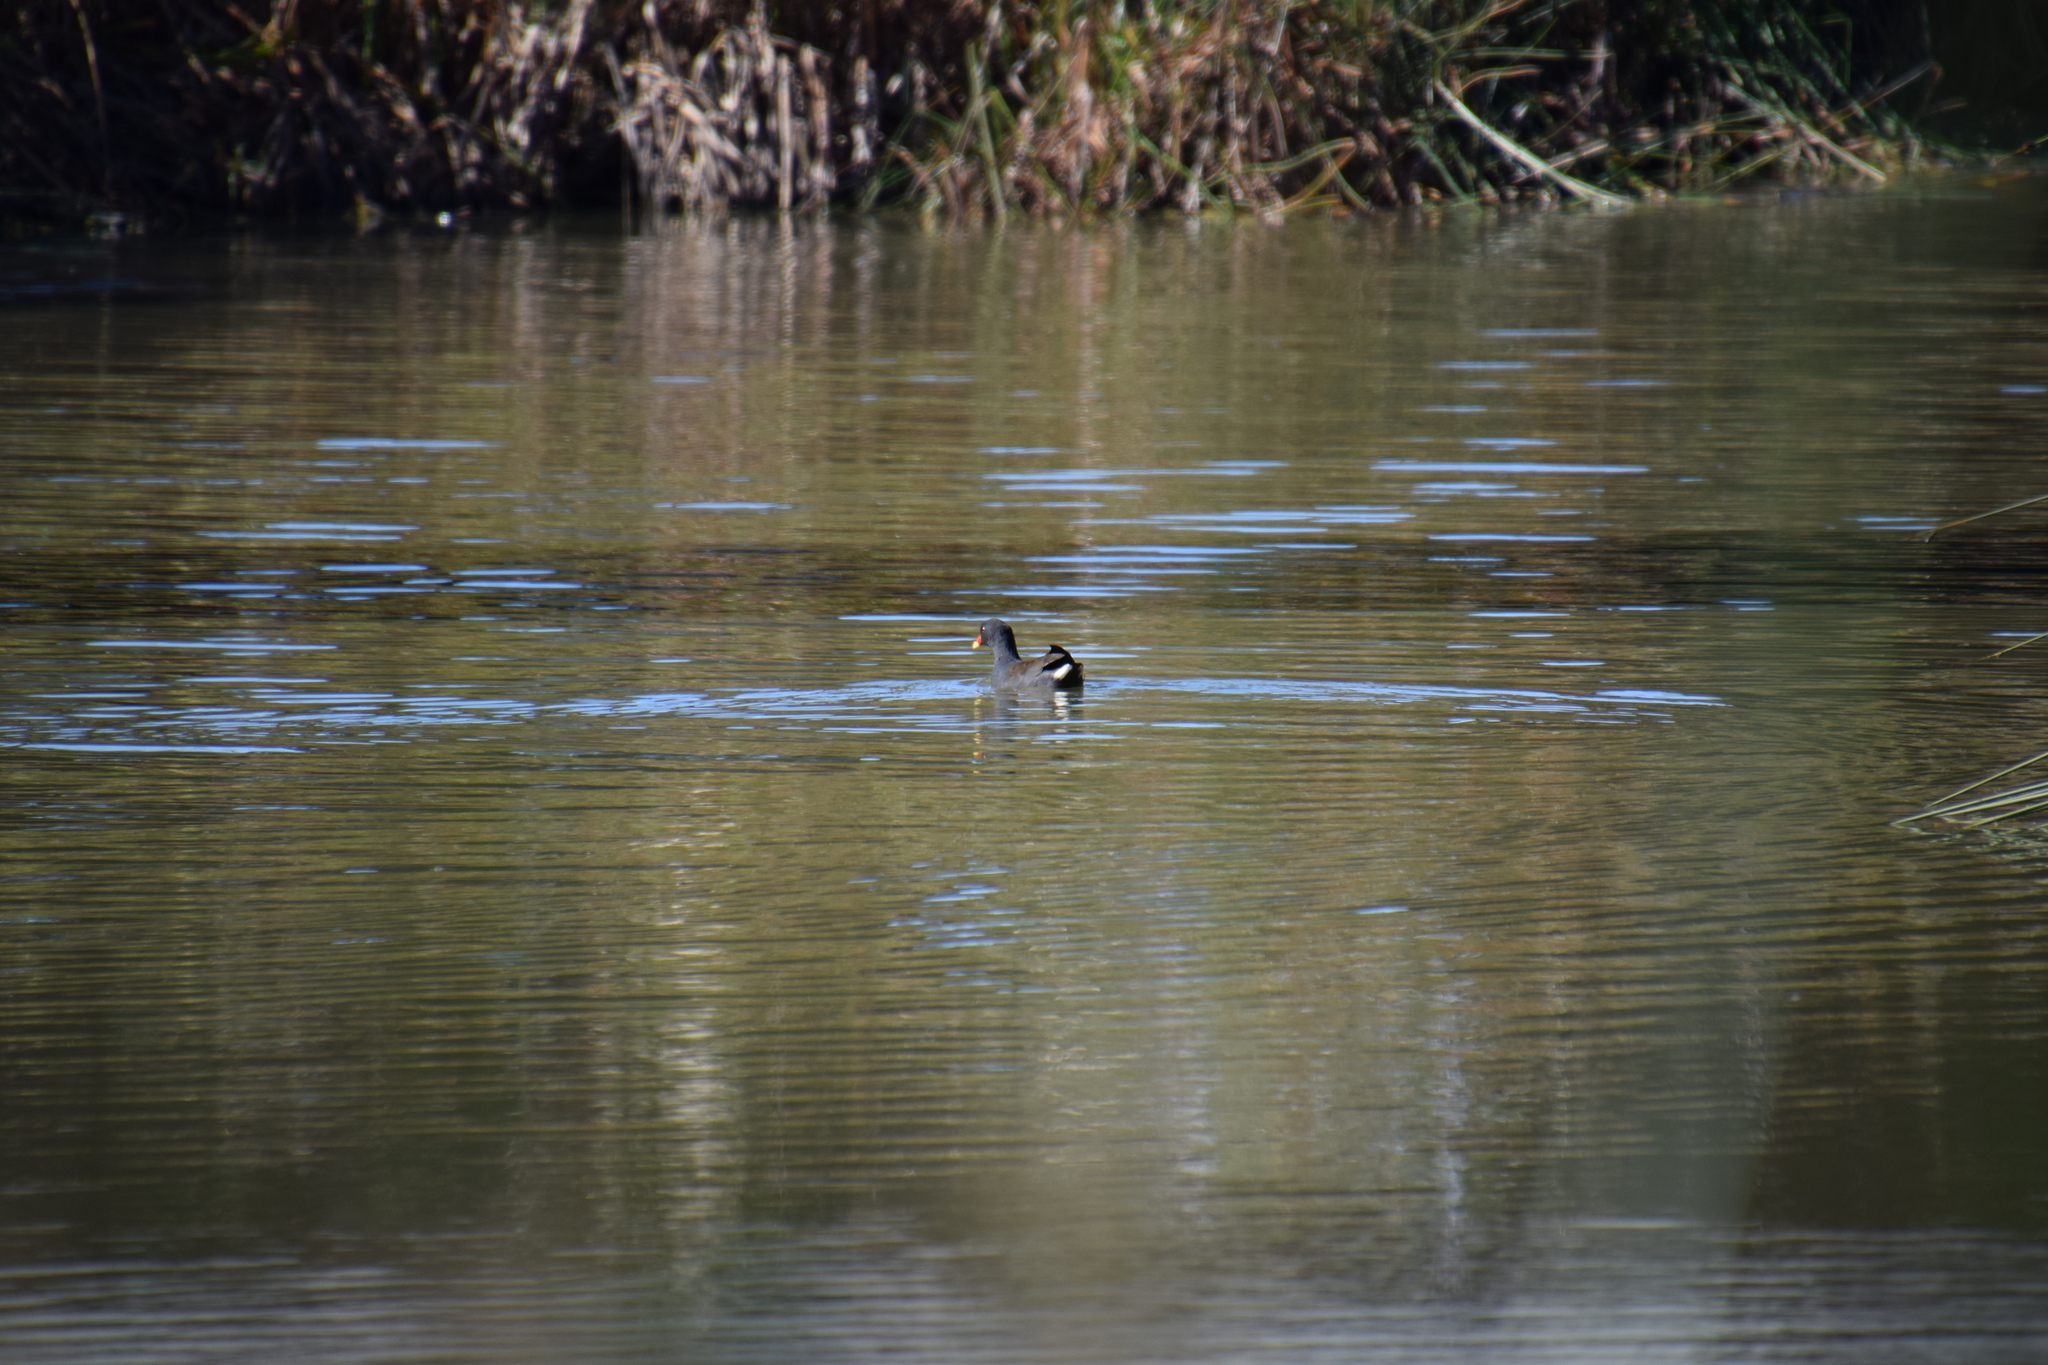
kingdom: Animalia
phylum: Chordata
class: Aves
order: Gruiformes
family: Rallidae
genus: Gallinula
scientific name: Gallinula tenebrosa
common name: Dusky moorhen
